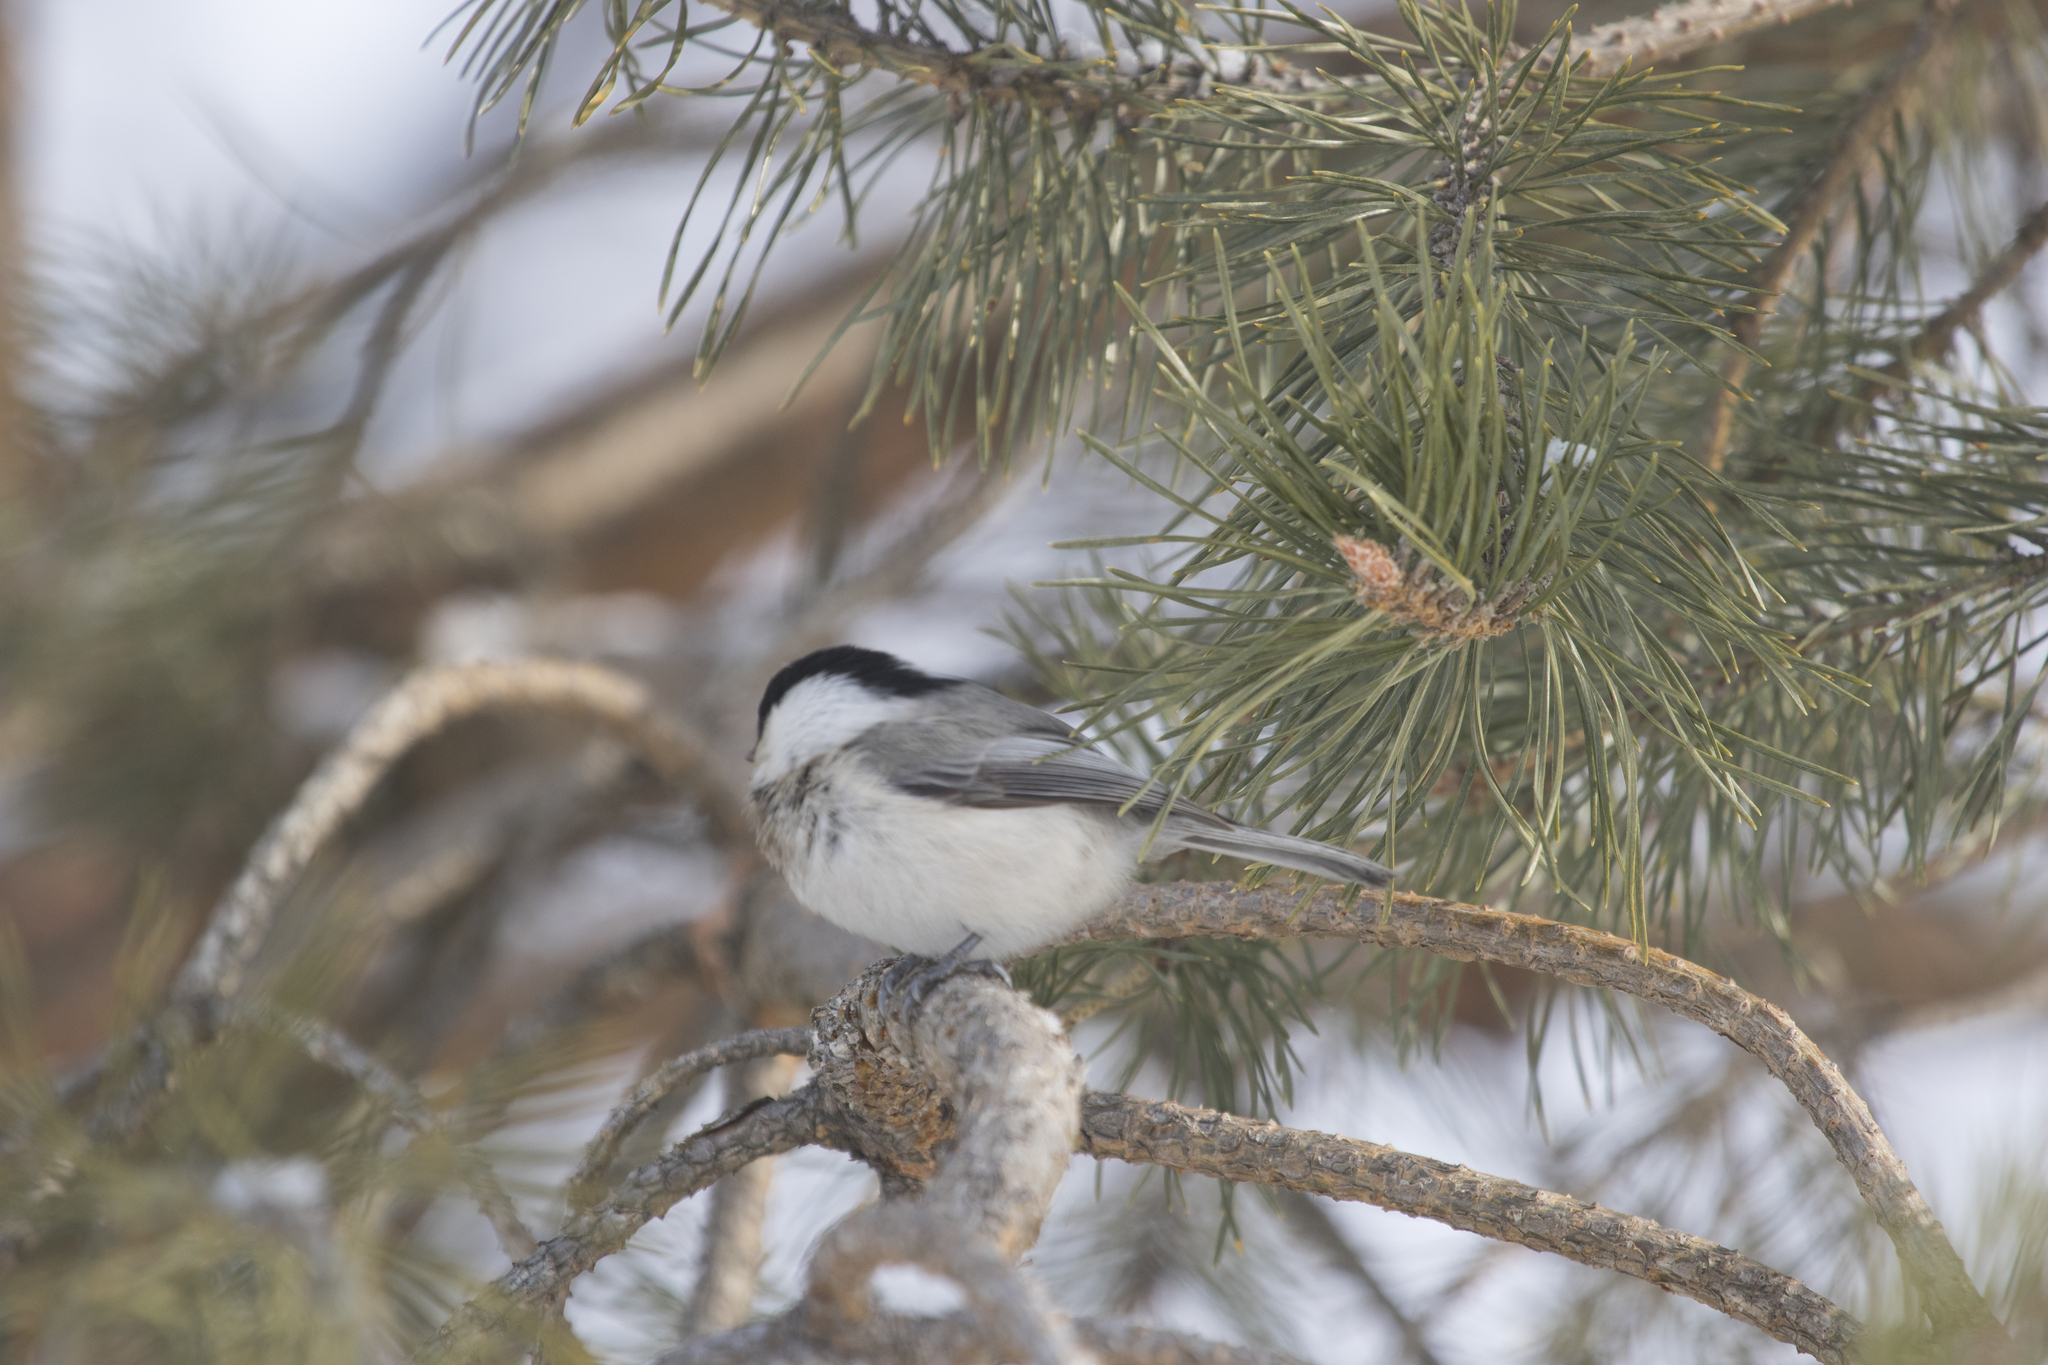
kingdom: Animalia
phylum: Chordata
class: Aves
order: Passeriformes
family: Paridae
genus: Poecile
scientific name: Poecile montanus
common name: Willow tit
